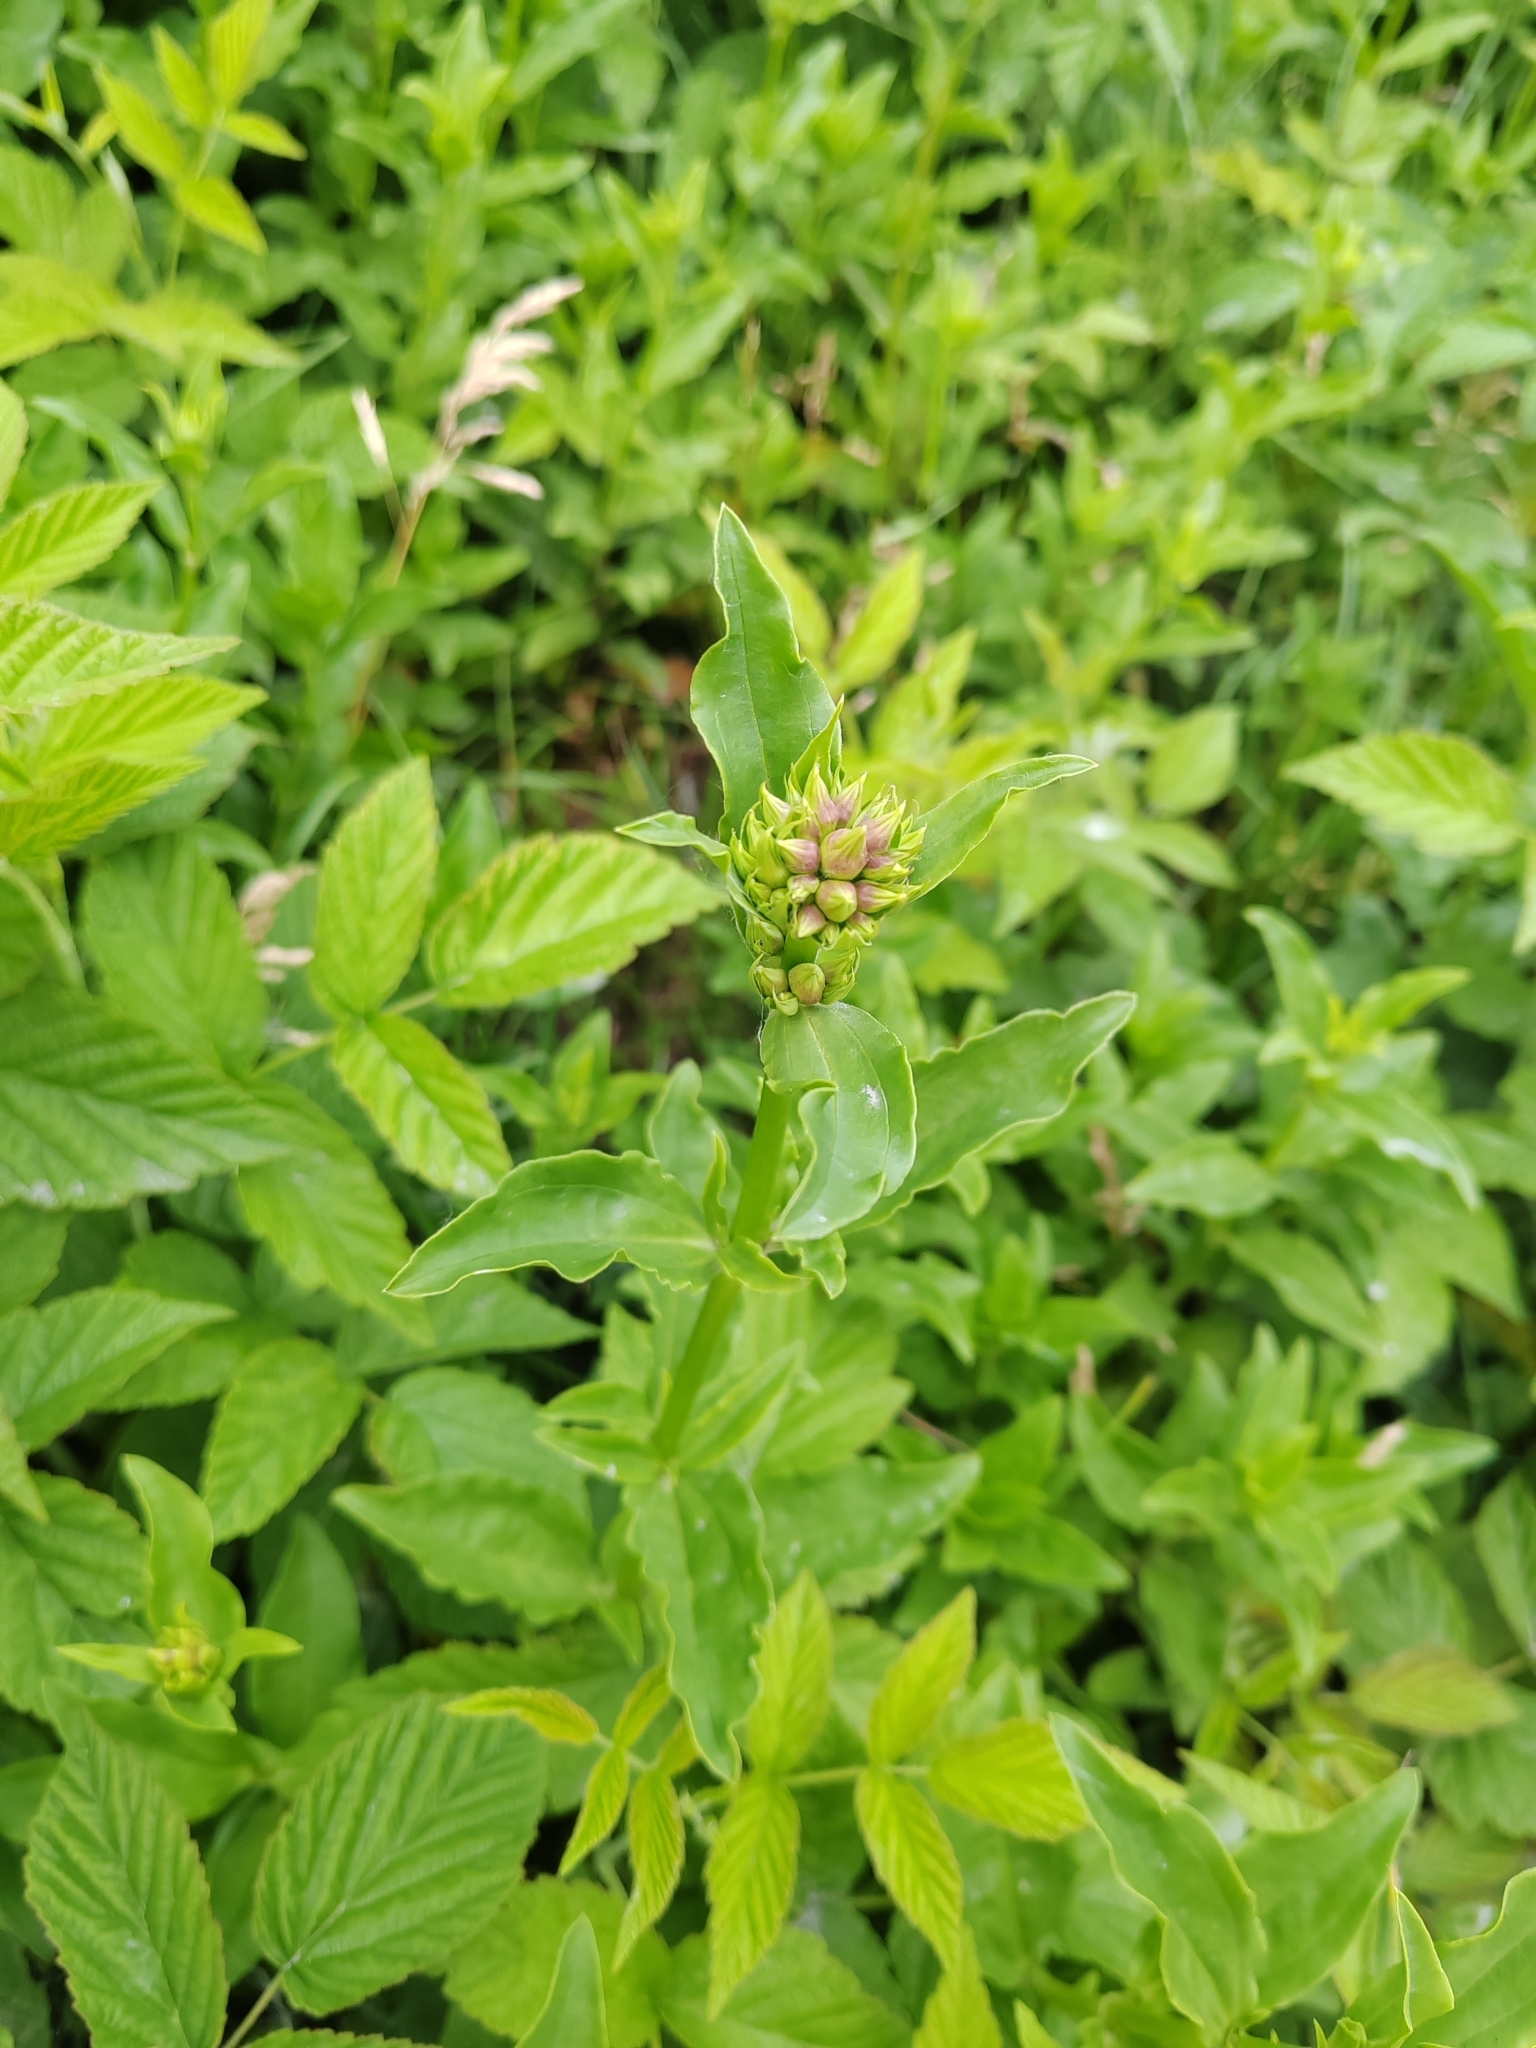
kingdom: Plantae
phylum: Tracheophyta
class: Magnoliopsida
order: Caryophyllales
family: Caryophyllaceae
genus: Saponaria
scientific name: Saponaria officinalis
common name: Soapwort
